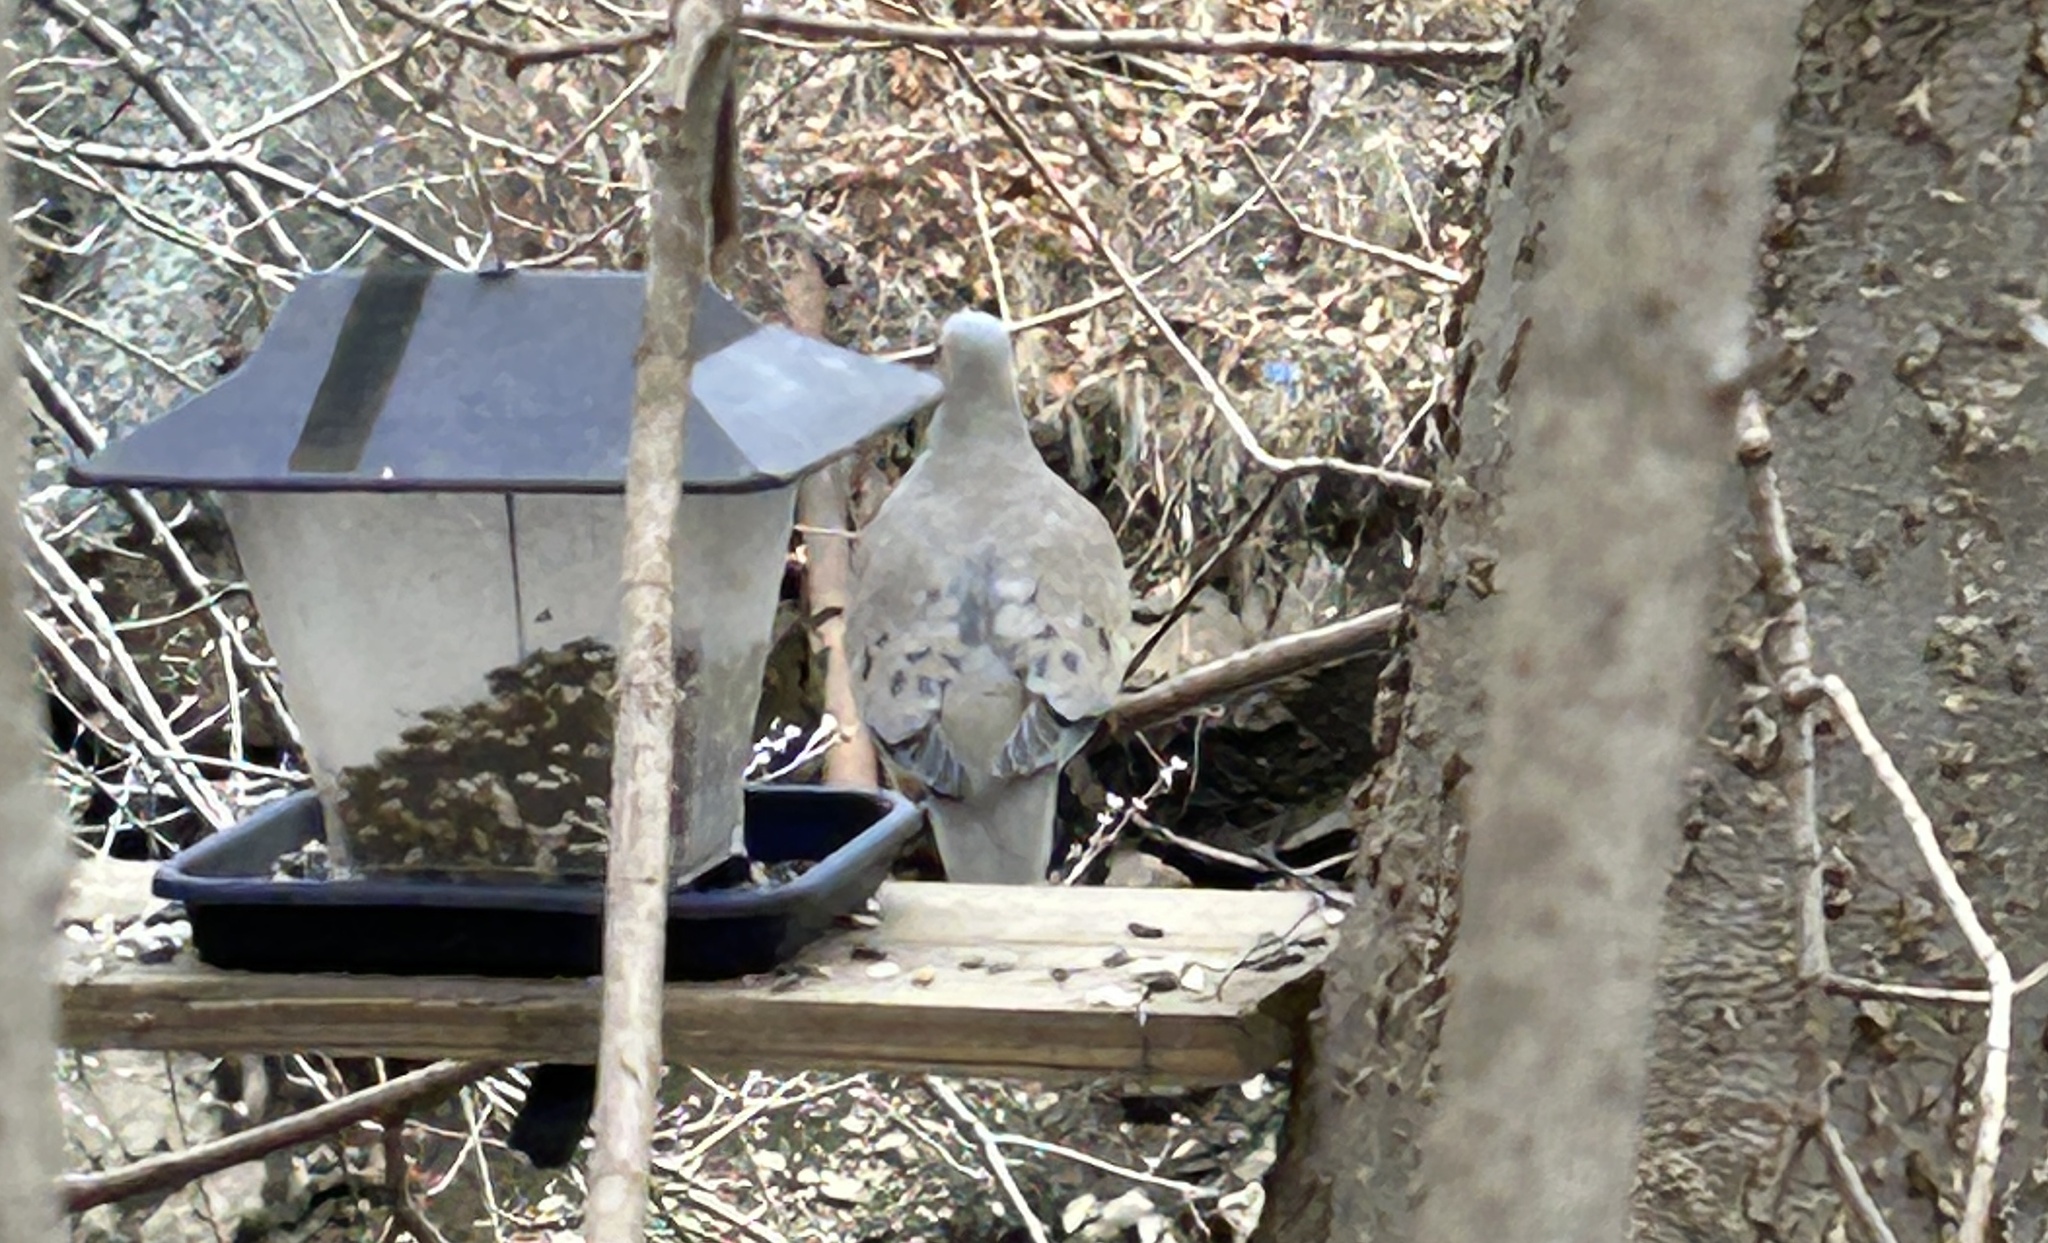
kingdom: Animalia
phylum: Chordata
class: Aves
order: Columbiformes
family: Columbidae
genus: Zenaida
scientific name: Zenaida macroura
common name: Mourning dove
